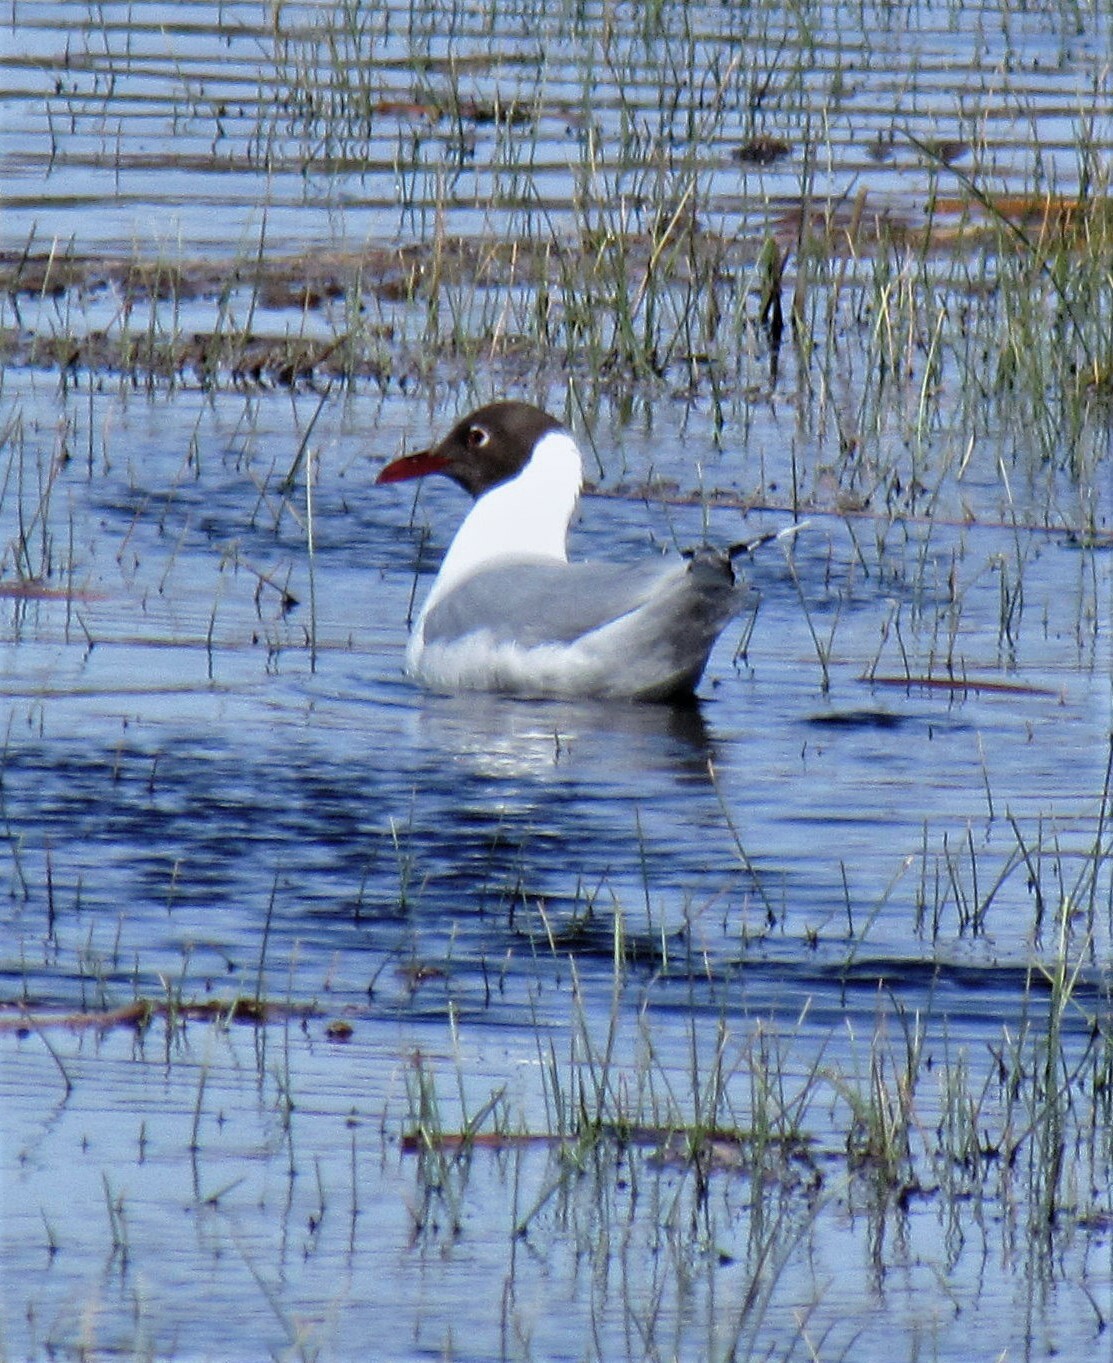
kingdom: Animalia
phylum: Chordata
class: Aves
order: Charadriiformes
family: Laridae
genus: Chroicocephalus
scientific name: Chroicocephalus maculipennis
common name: Brown-hooded gull
